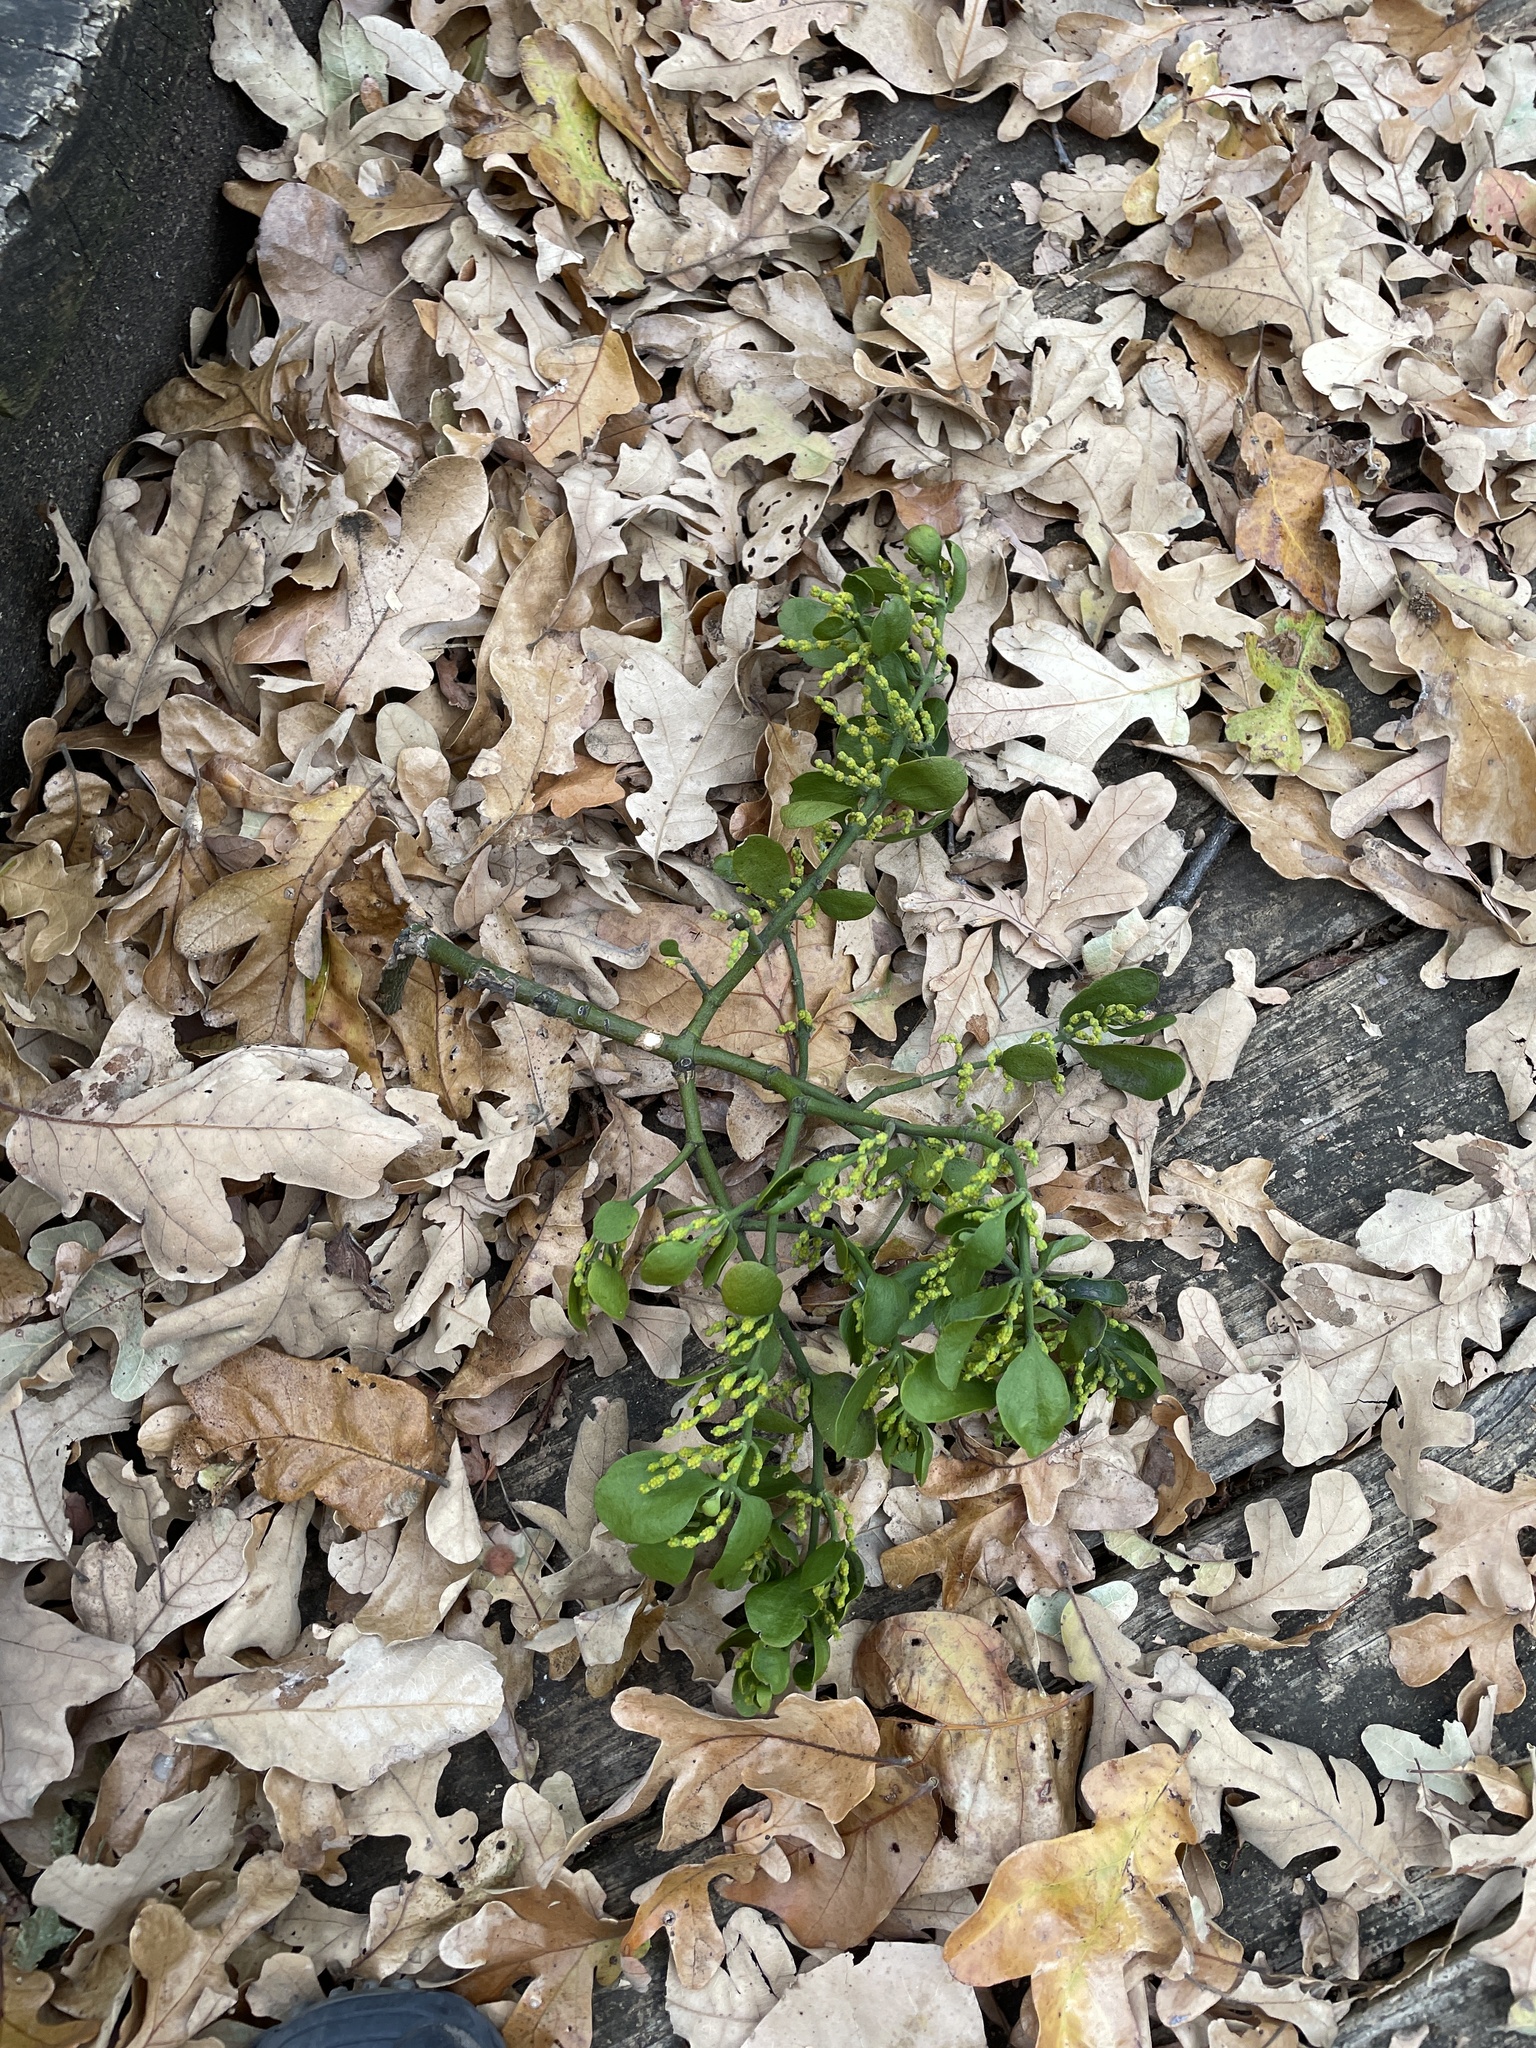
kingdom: Plantae
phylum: Tracheophyta
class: Magnoliopsida
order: Santalales
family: Viscaceae
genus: Phoradendron
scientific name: Phoradendron leucarpum
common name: Pacific mistletoe
